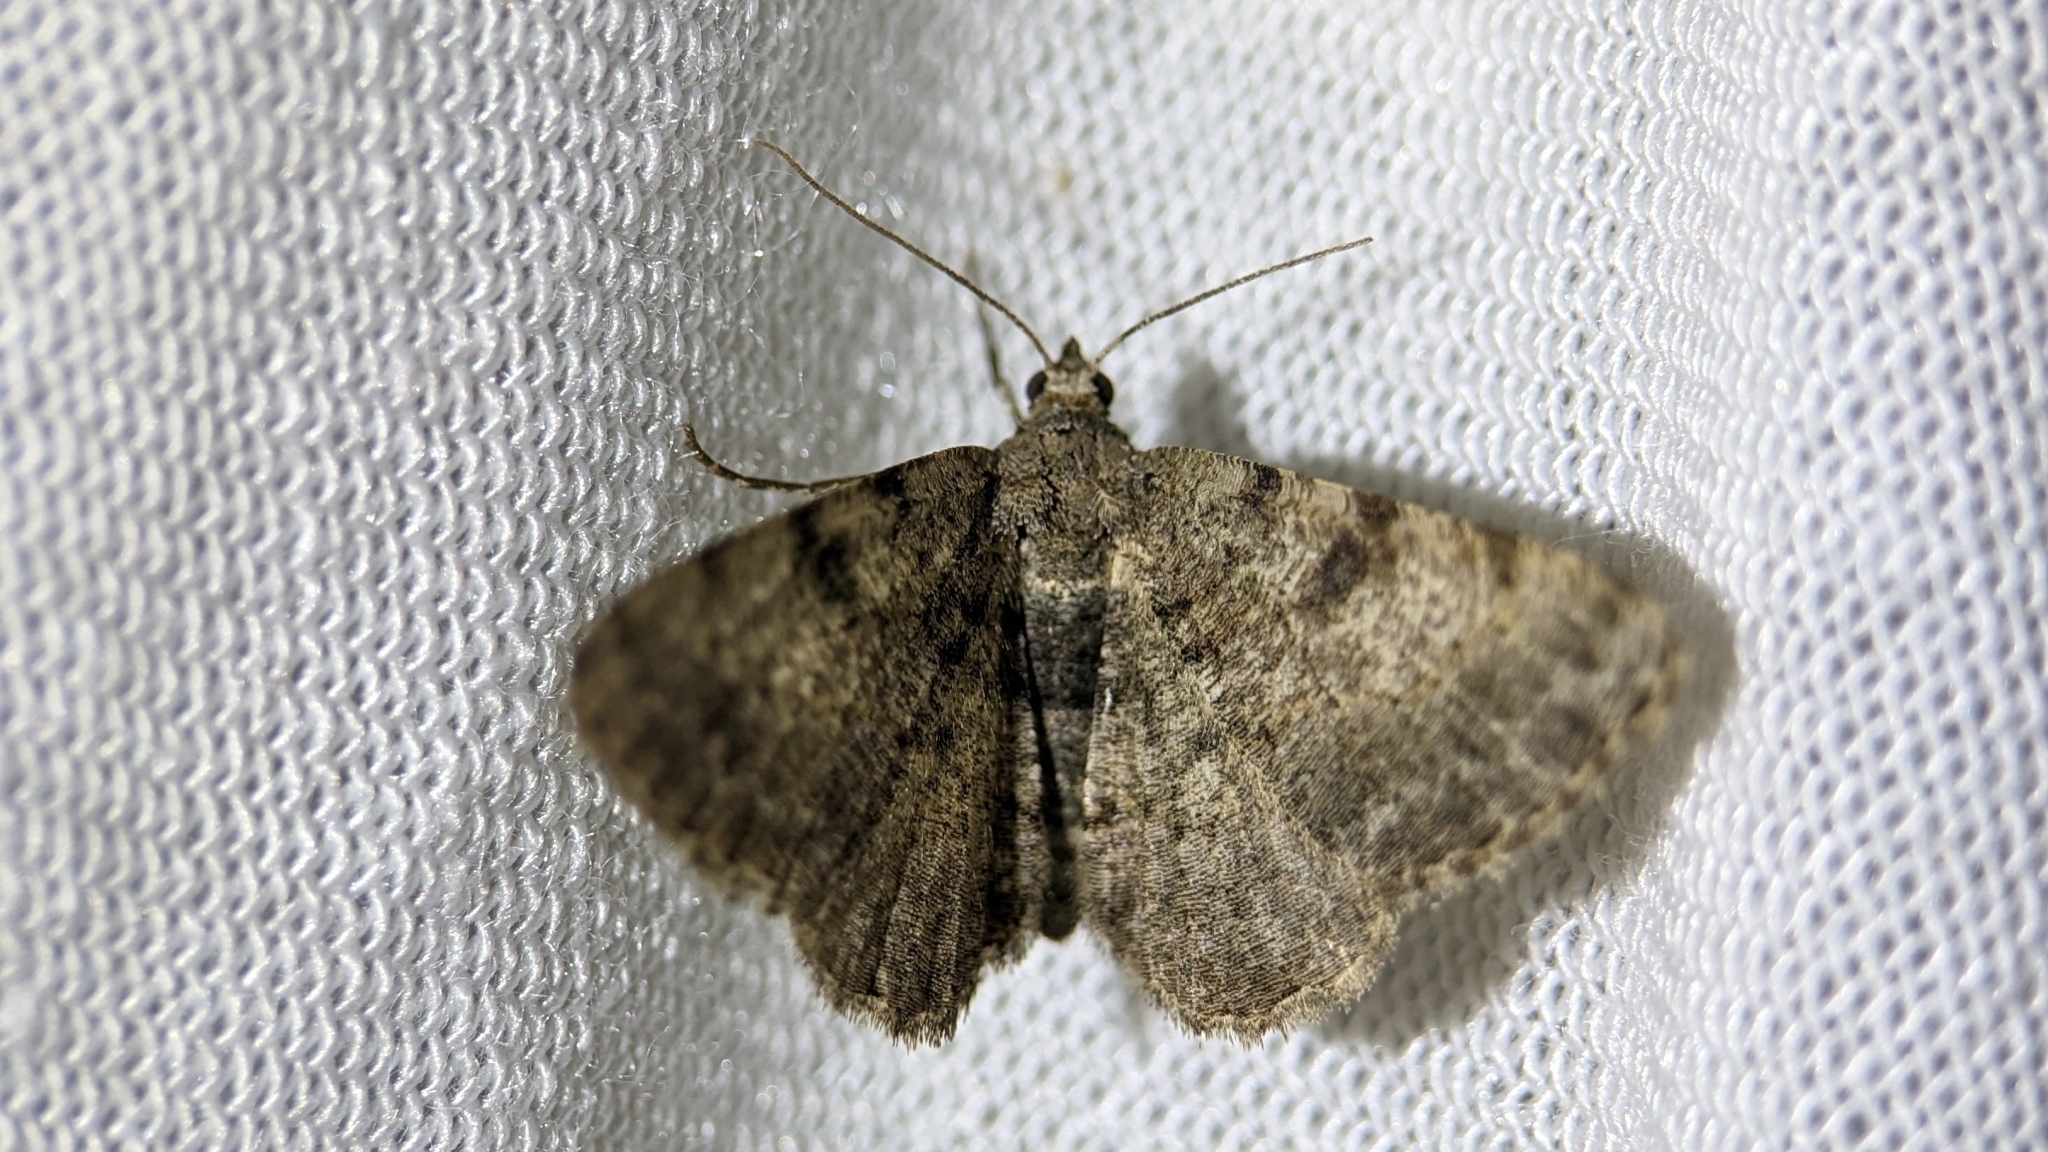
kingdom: Animalia
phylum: Arthropoda
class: Insecta
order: Lepidoptera
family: Geometridae
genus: Digrammia
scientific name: Digrammia gnophosaria
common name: Hollow-spotted angle
